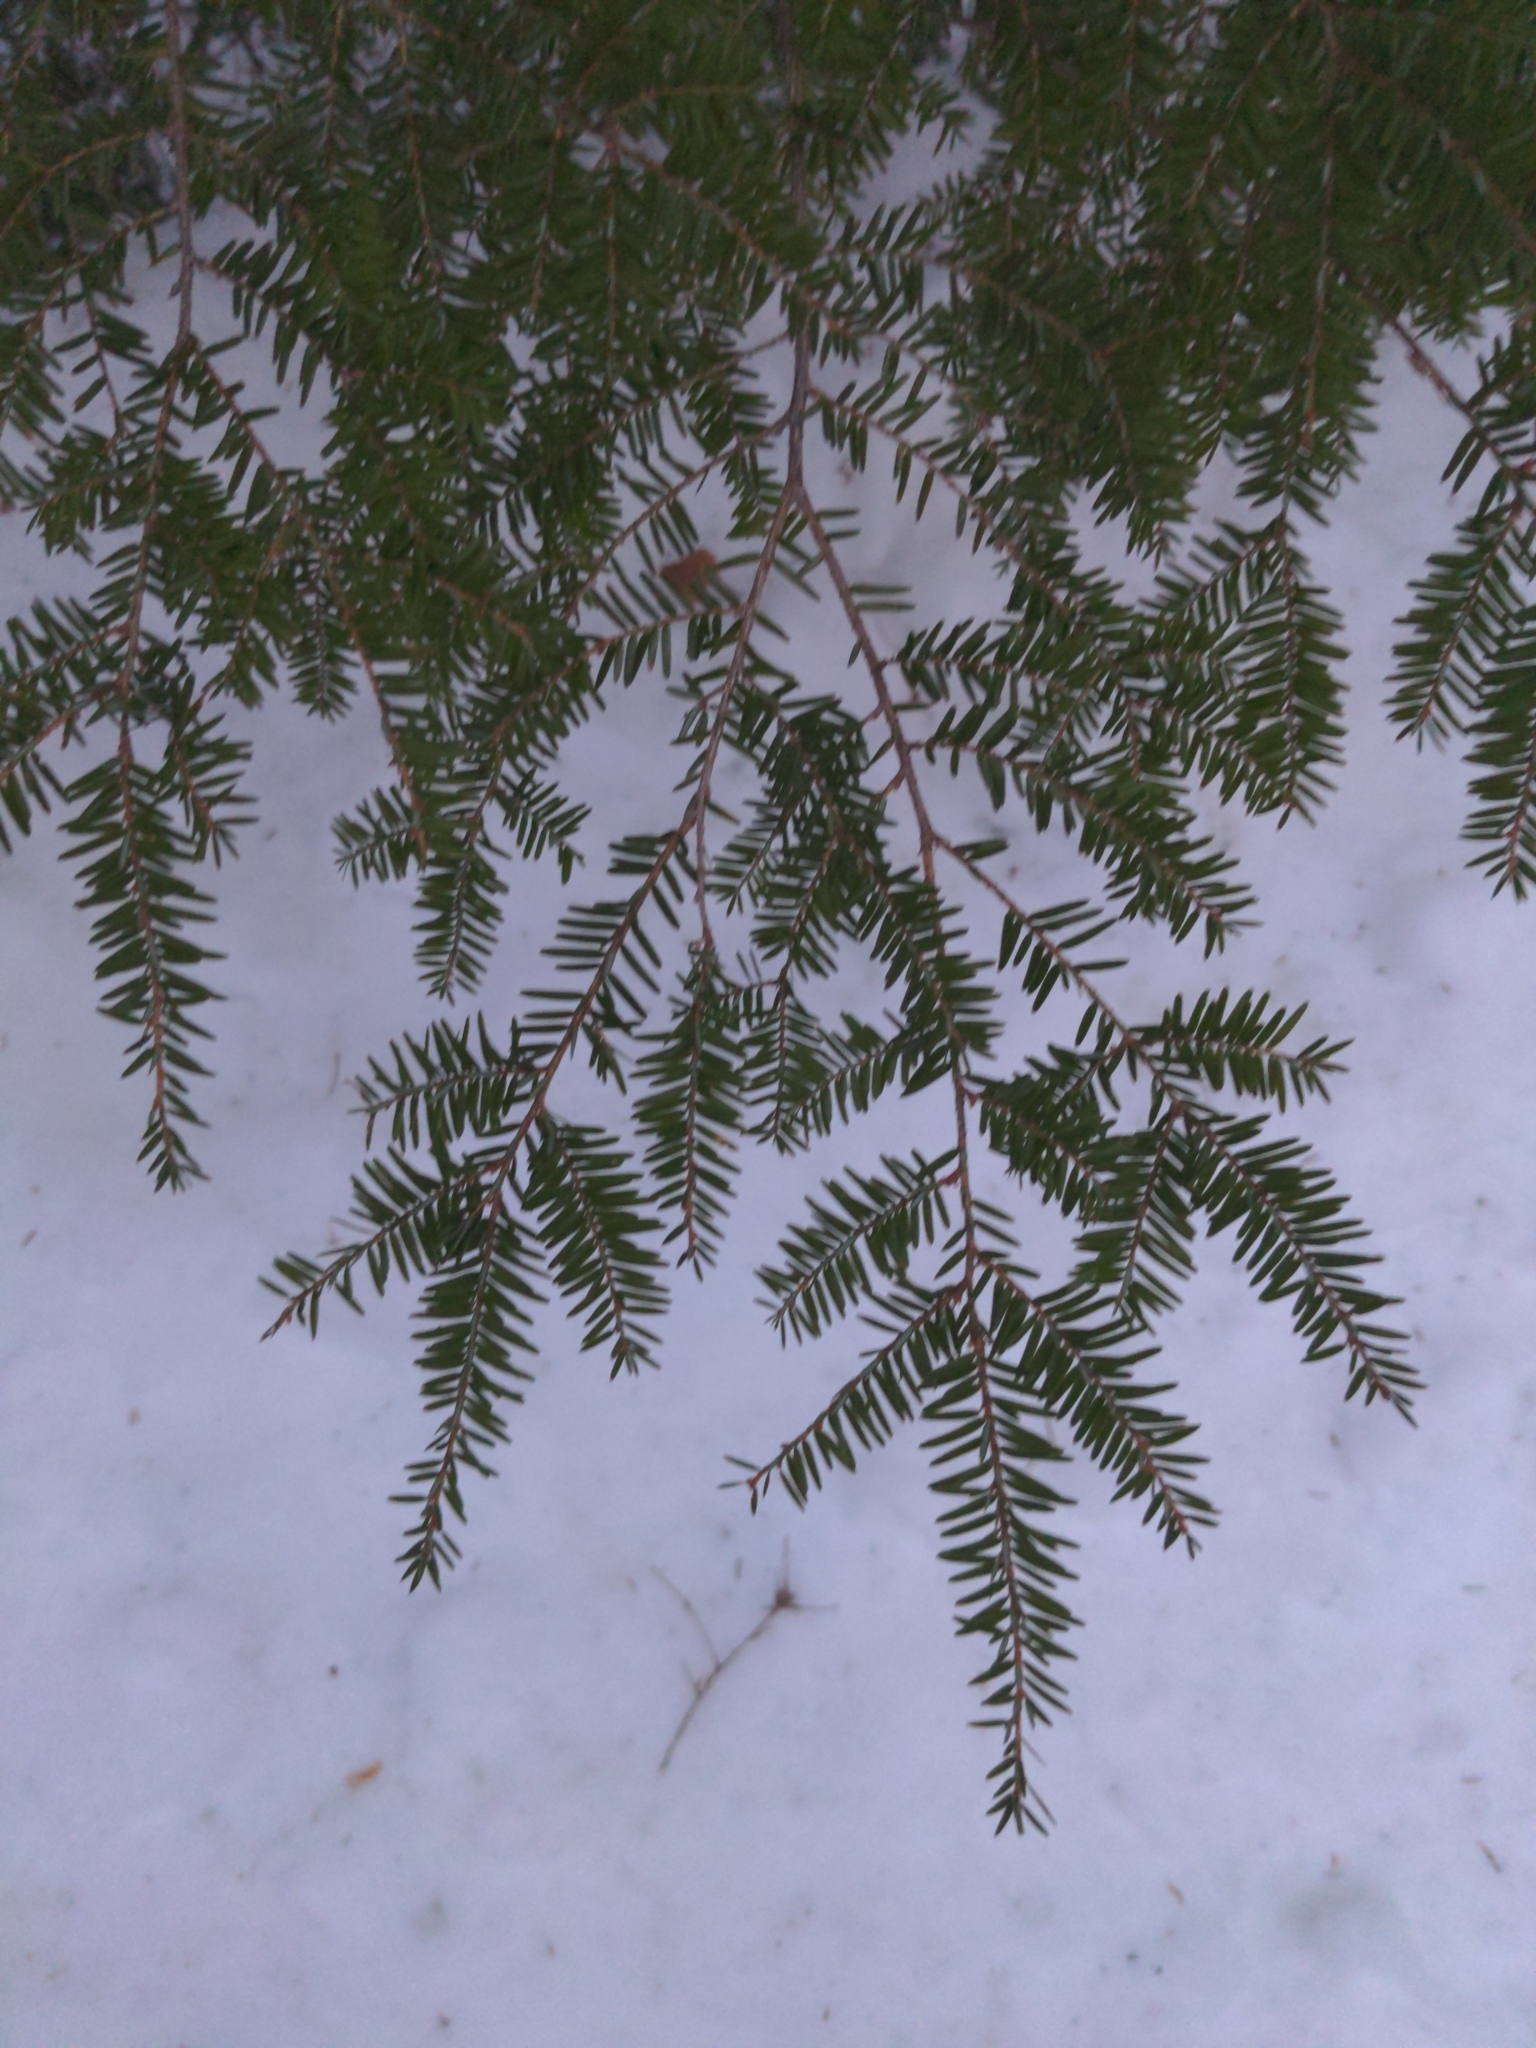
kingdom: Plantae
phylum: Tracheophyta
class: Pinopsida
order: Pinales
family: Pinaceae
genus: Tsuga
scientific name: Tsuga canadensis
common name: Eastern hemlock
